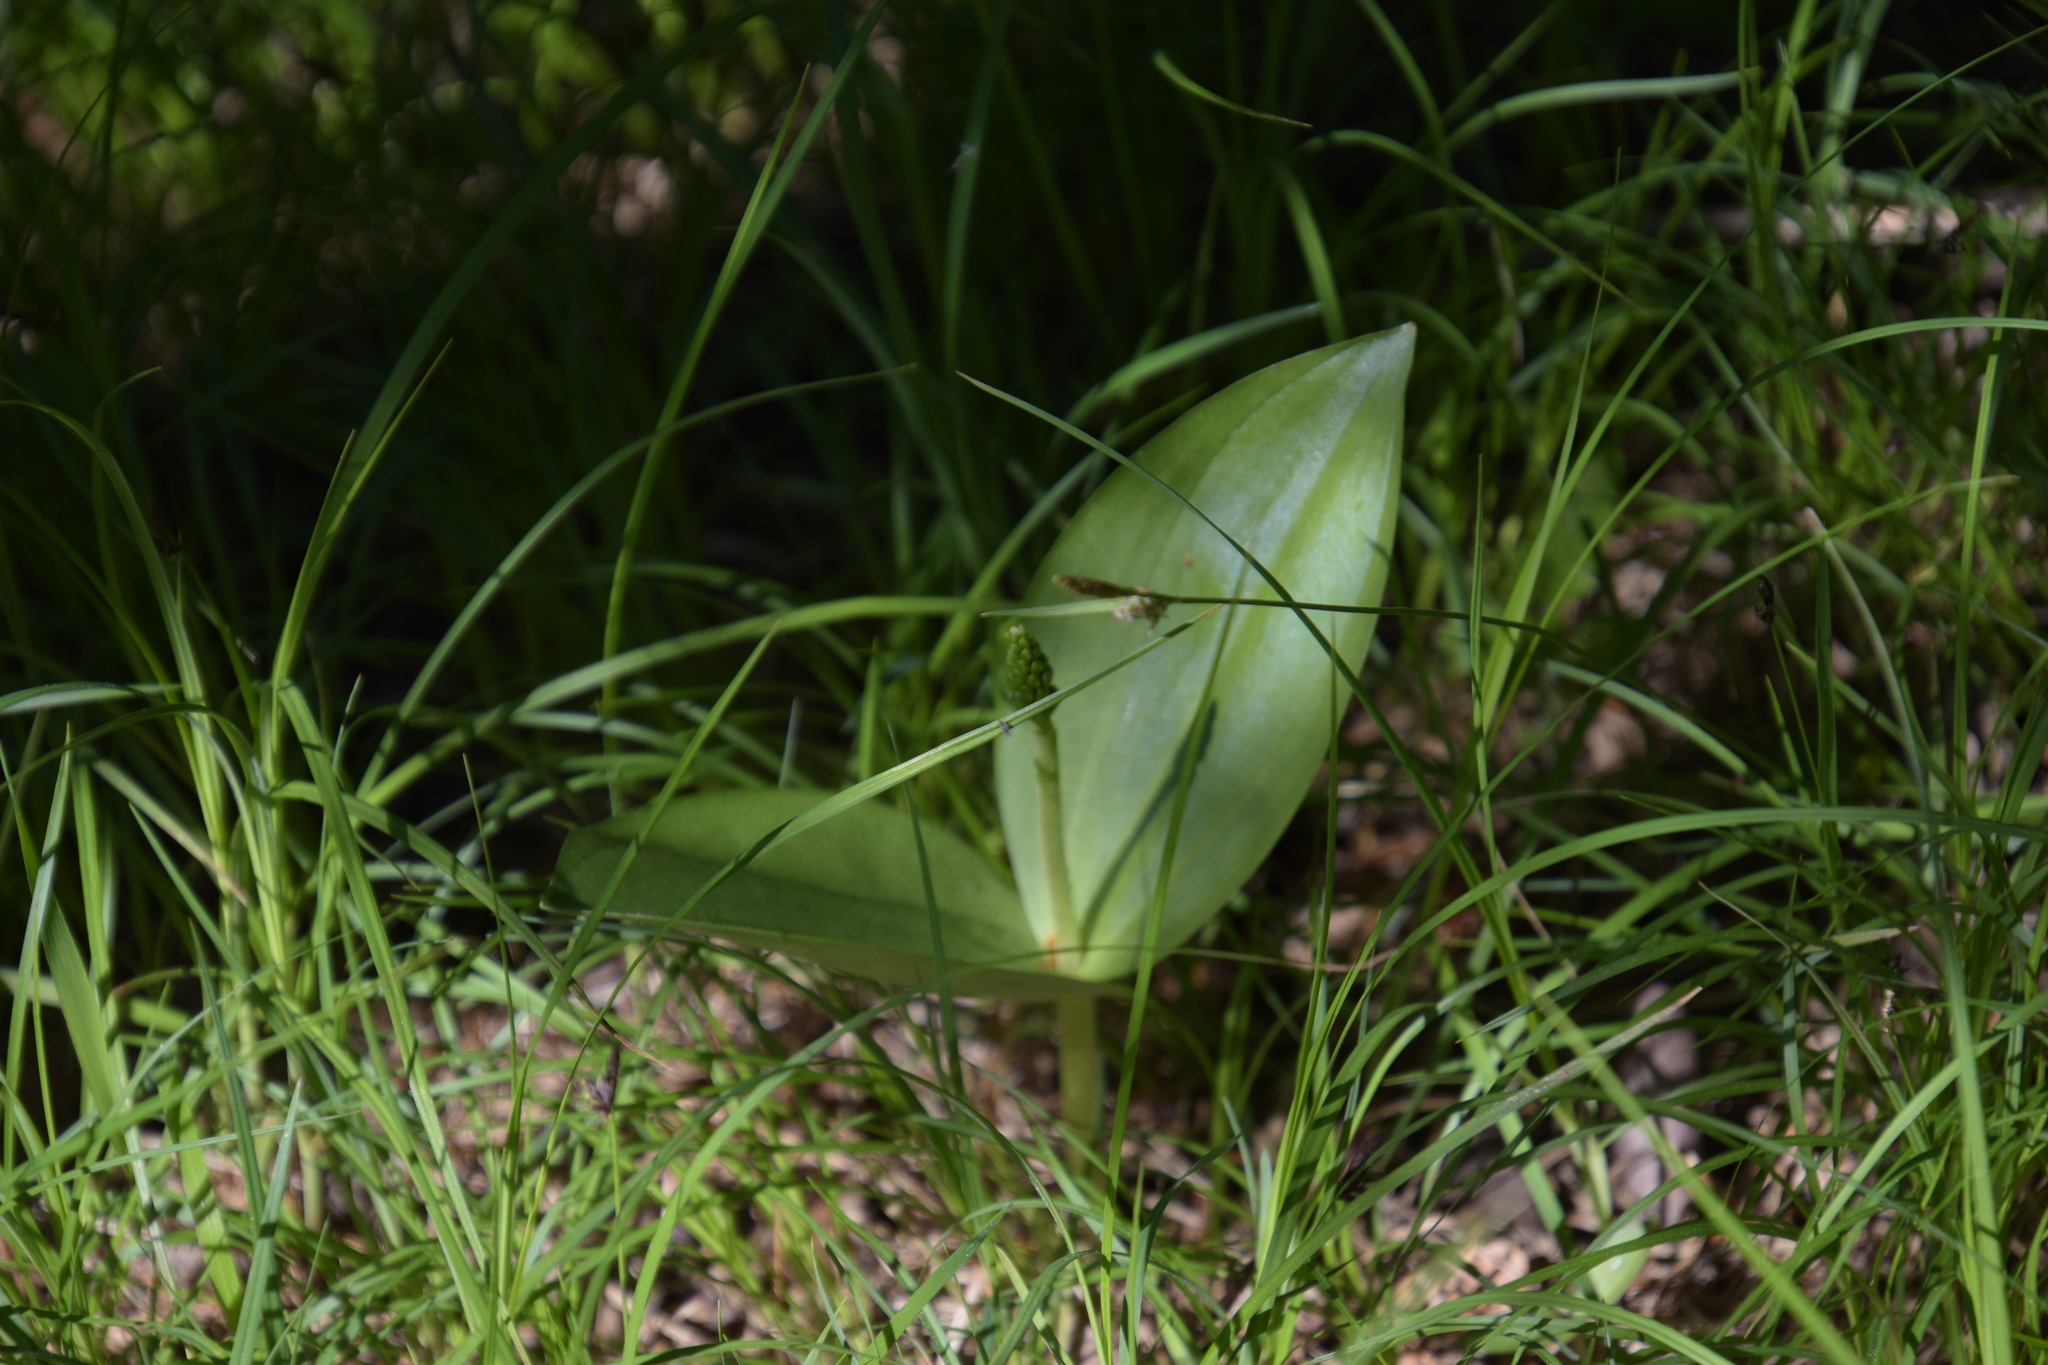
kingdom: Plantae
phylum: Tracheophyta
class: Liliopsida
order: Asparagales
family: Orchidaceae
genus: Neottia
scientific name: Neottia ovata
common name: Common twayblade
